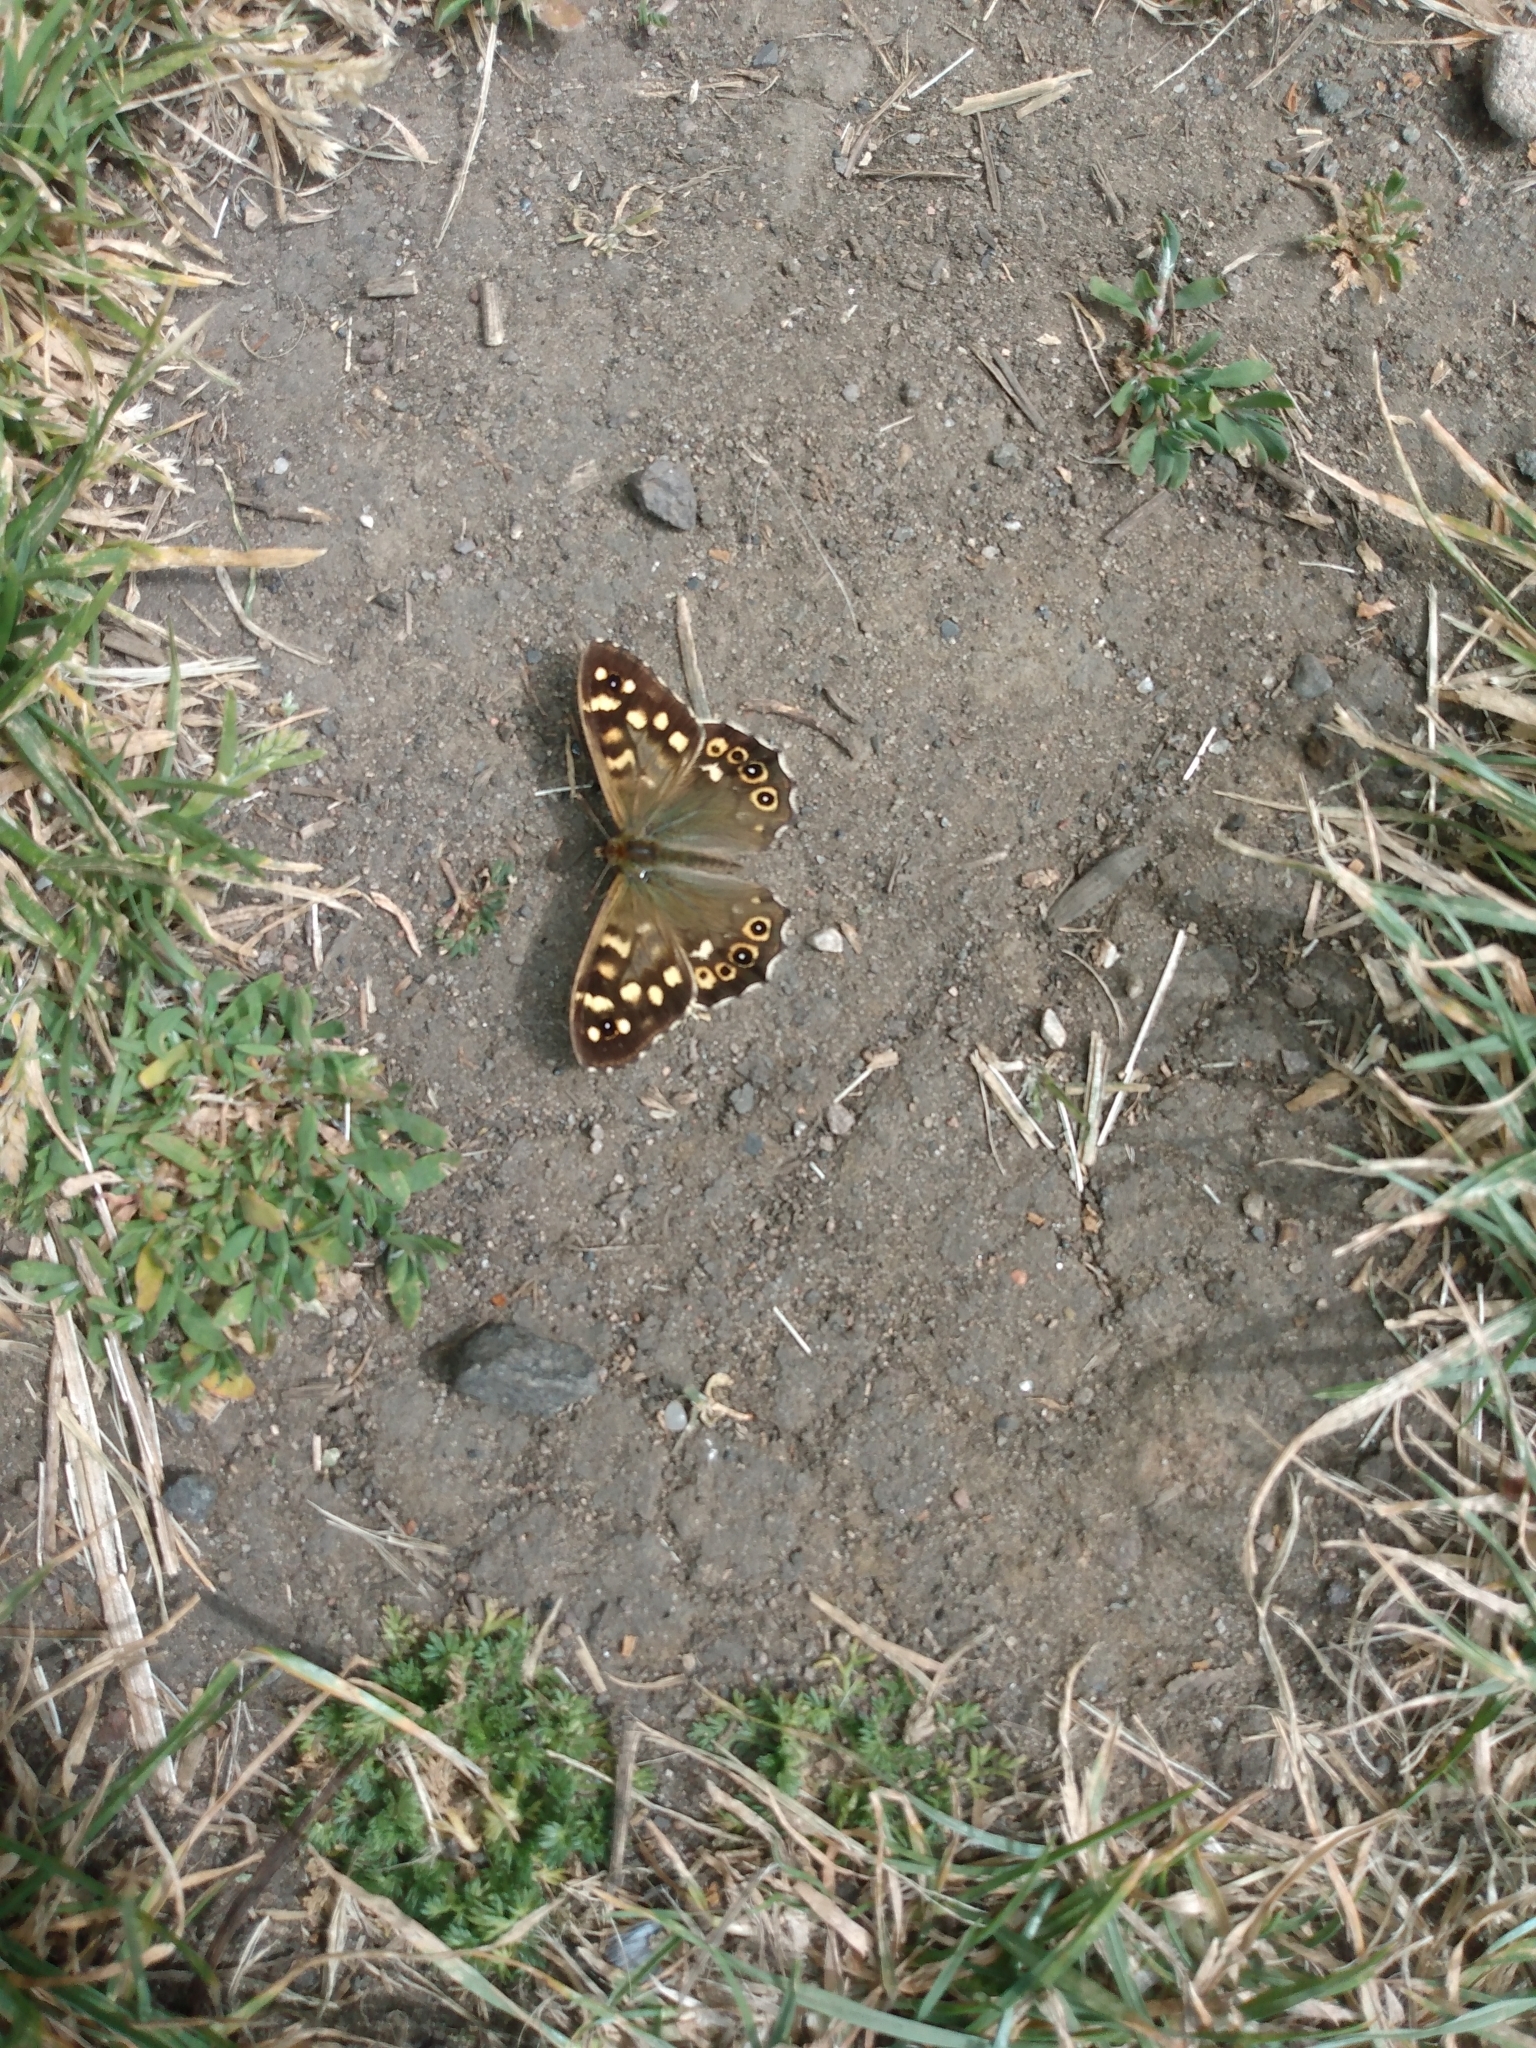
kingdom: Animalia
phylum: Arthropoda
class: Insecta
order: Lepidoptera
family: Nymphalidae
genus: Pararge
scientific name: Pararge aegeria
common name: Speckled wood
